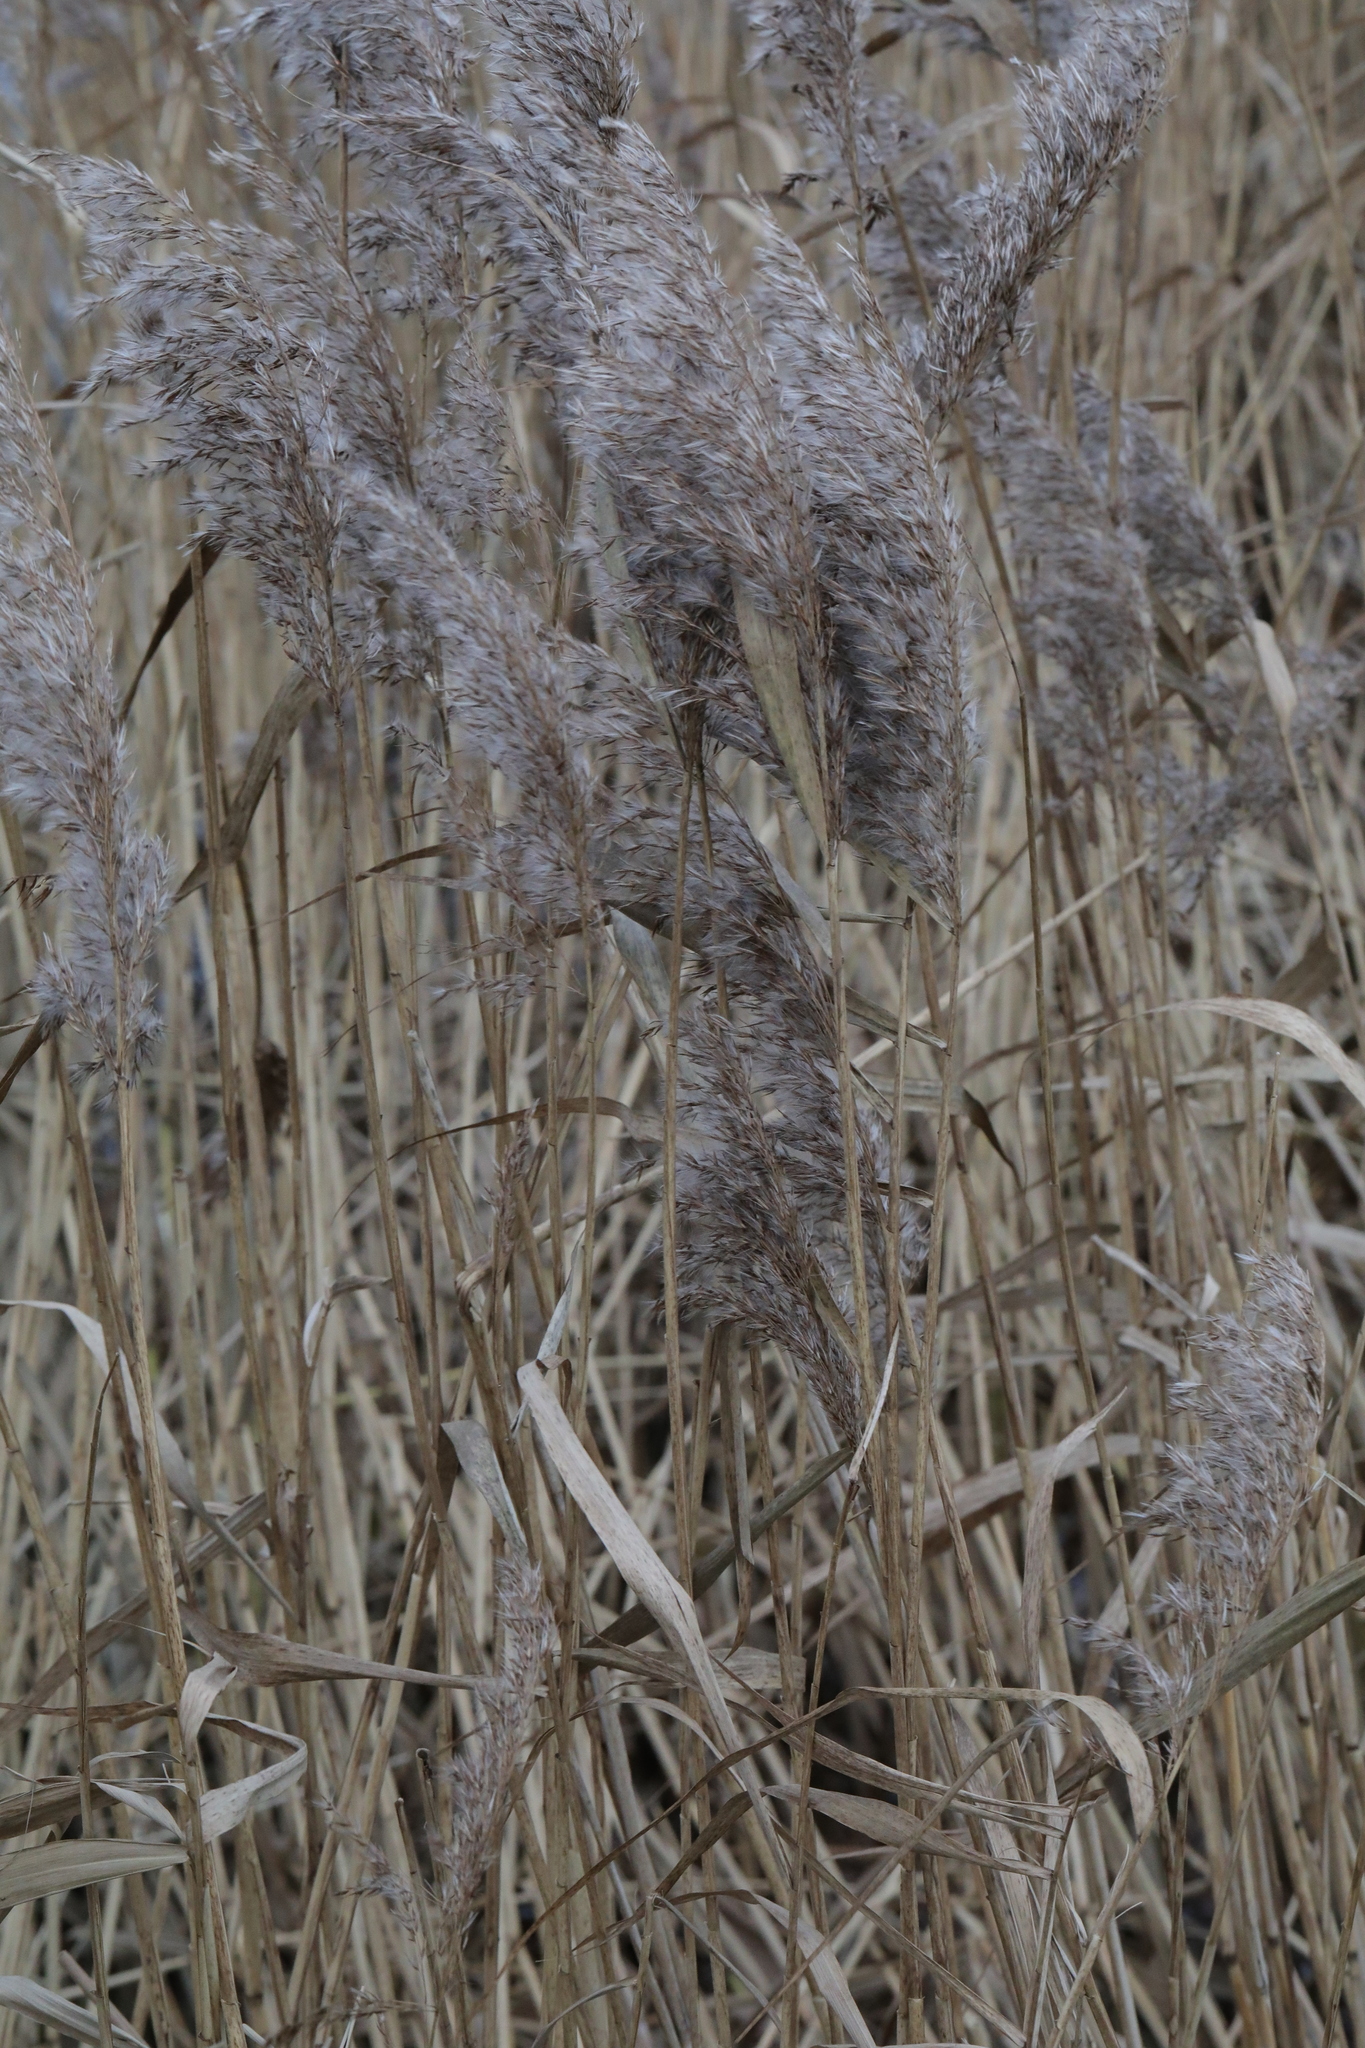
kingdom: Plantae
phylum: Tracheophyta
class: Liliopsida
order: Poales
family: Poaceae
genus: Phragmites
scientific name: Phragmites australis
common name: Common reed
